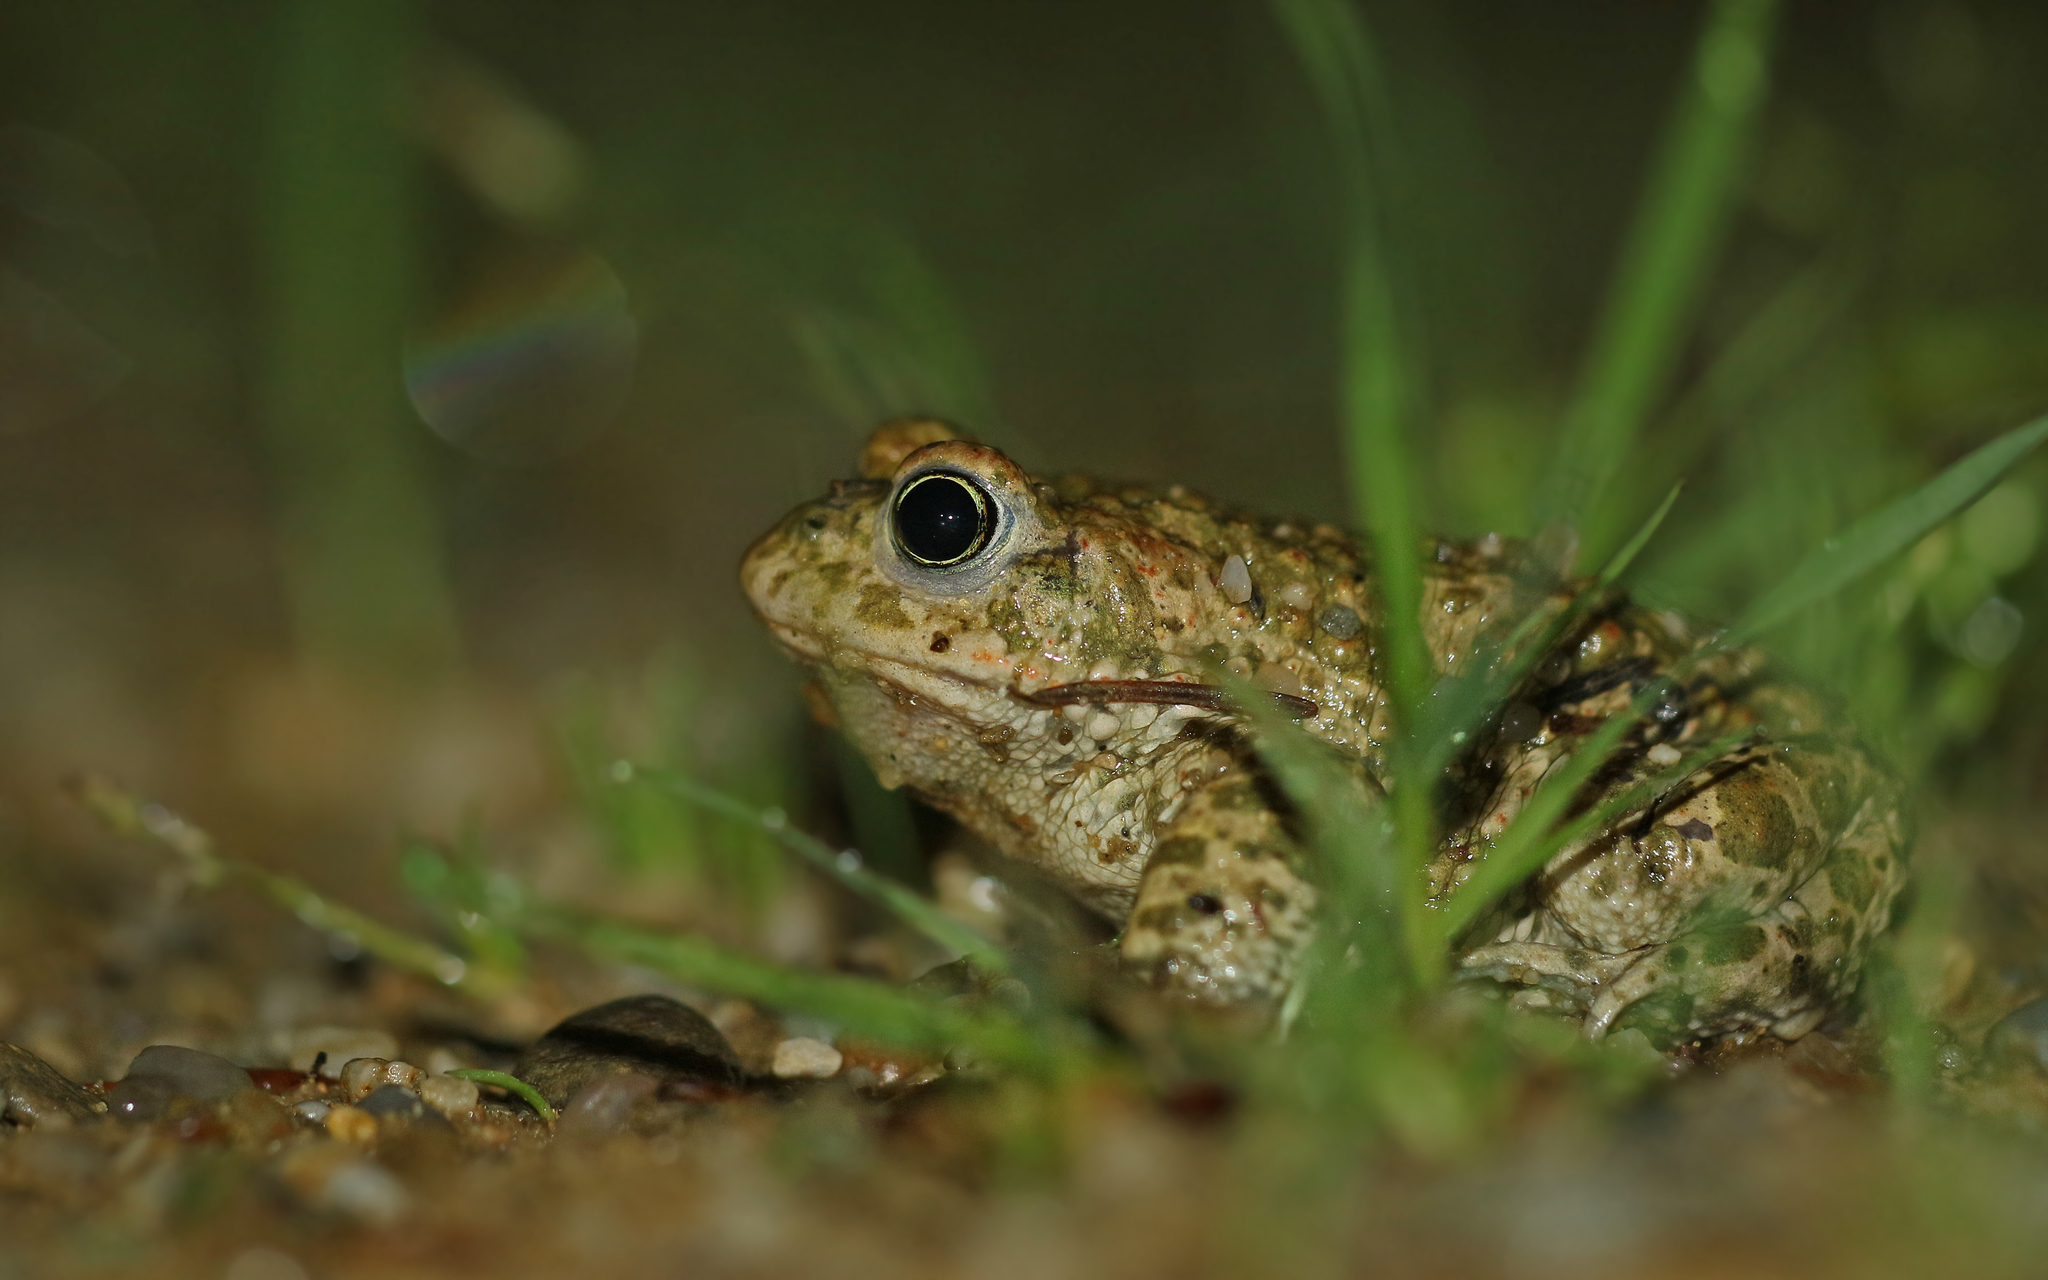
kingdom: Animalia
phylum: Chordata
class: Amphibia
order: Anura
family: Bufonidae
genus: Epidalea
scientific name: Epidalea calamita
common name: Natterjack toad
